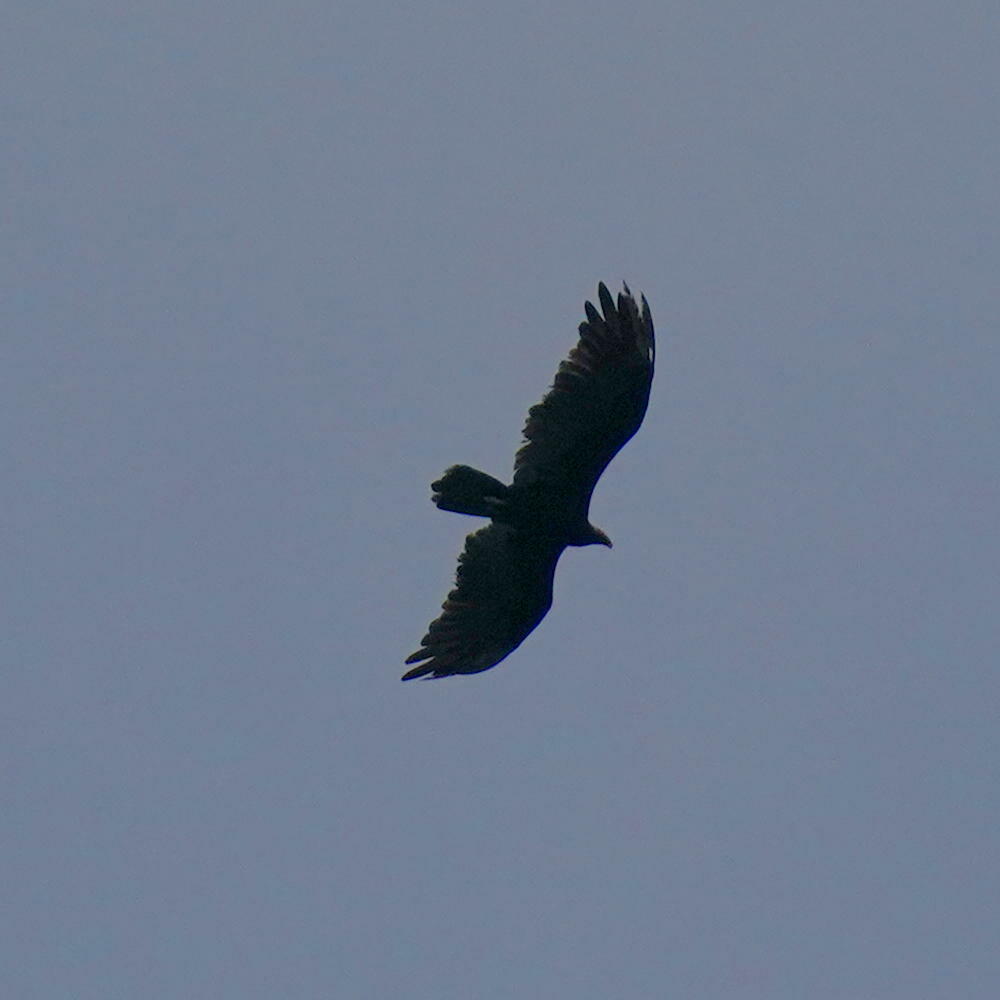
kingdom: Animalia
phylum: Chordata
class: Aves
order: Accipitriformes
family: Cathartidae
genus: Cathartes
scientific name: Cathartes aura
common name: Turkey vulture
